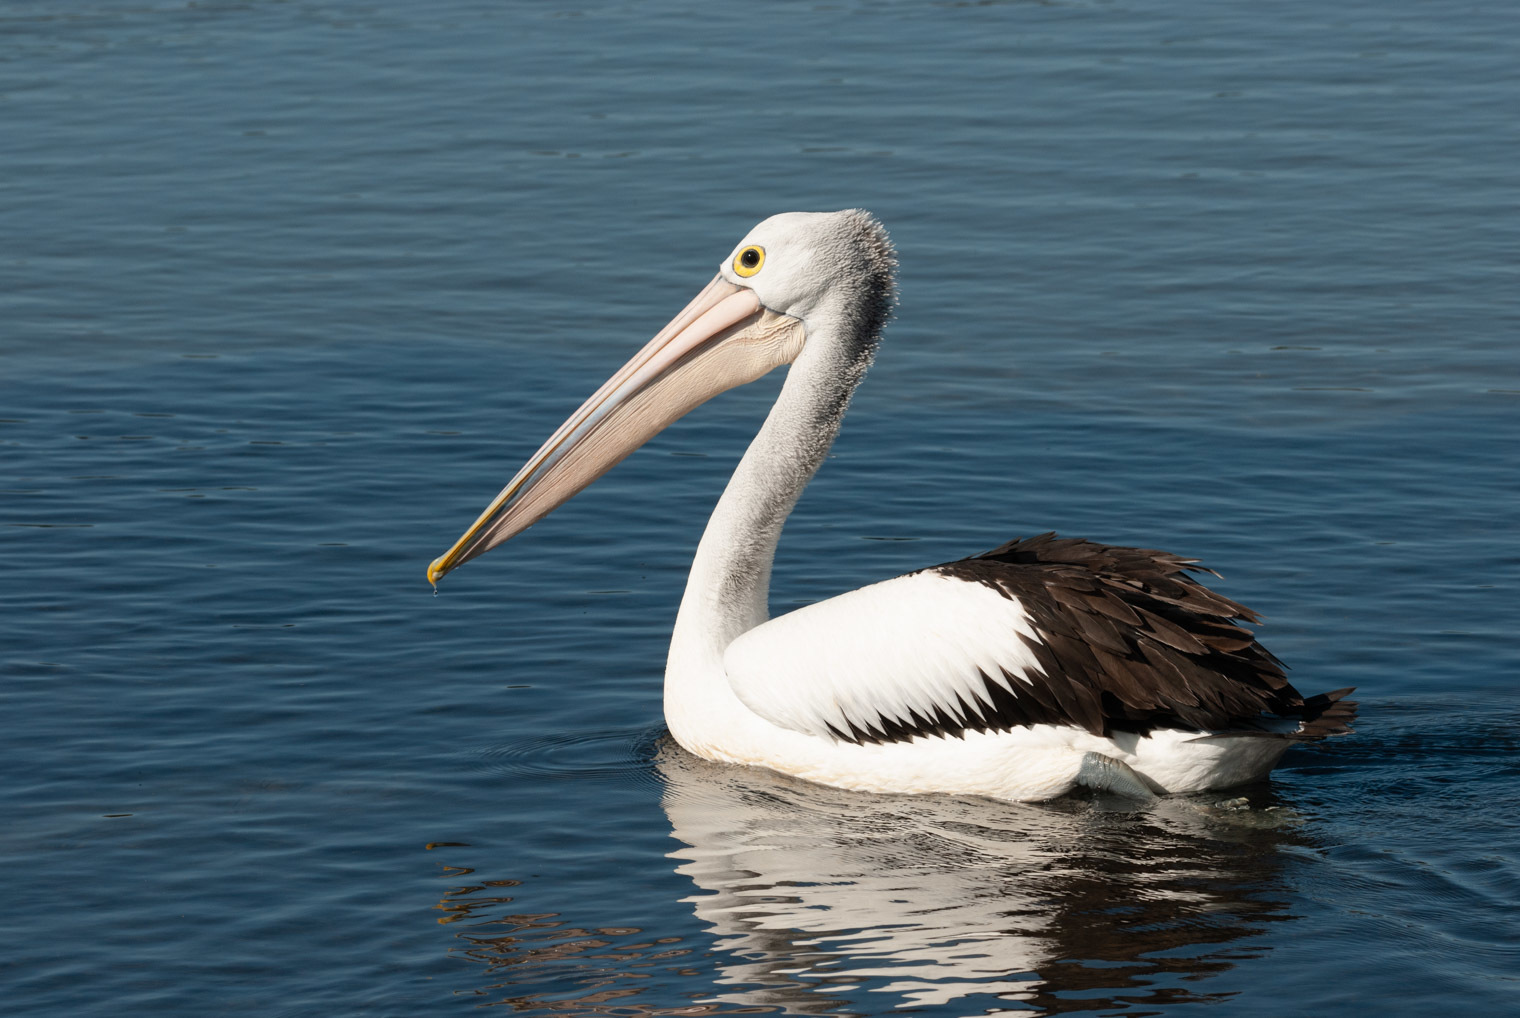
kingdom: Animalia
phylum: Chordata
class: Aves
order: Pelecaniformes
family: Pelecanidae
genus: Pelecanus
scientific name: Pelecanus conspicillatus
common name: Australian pelican
